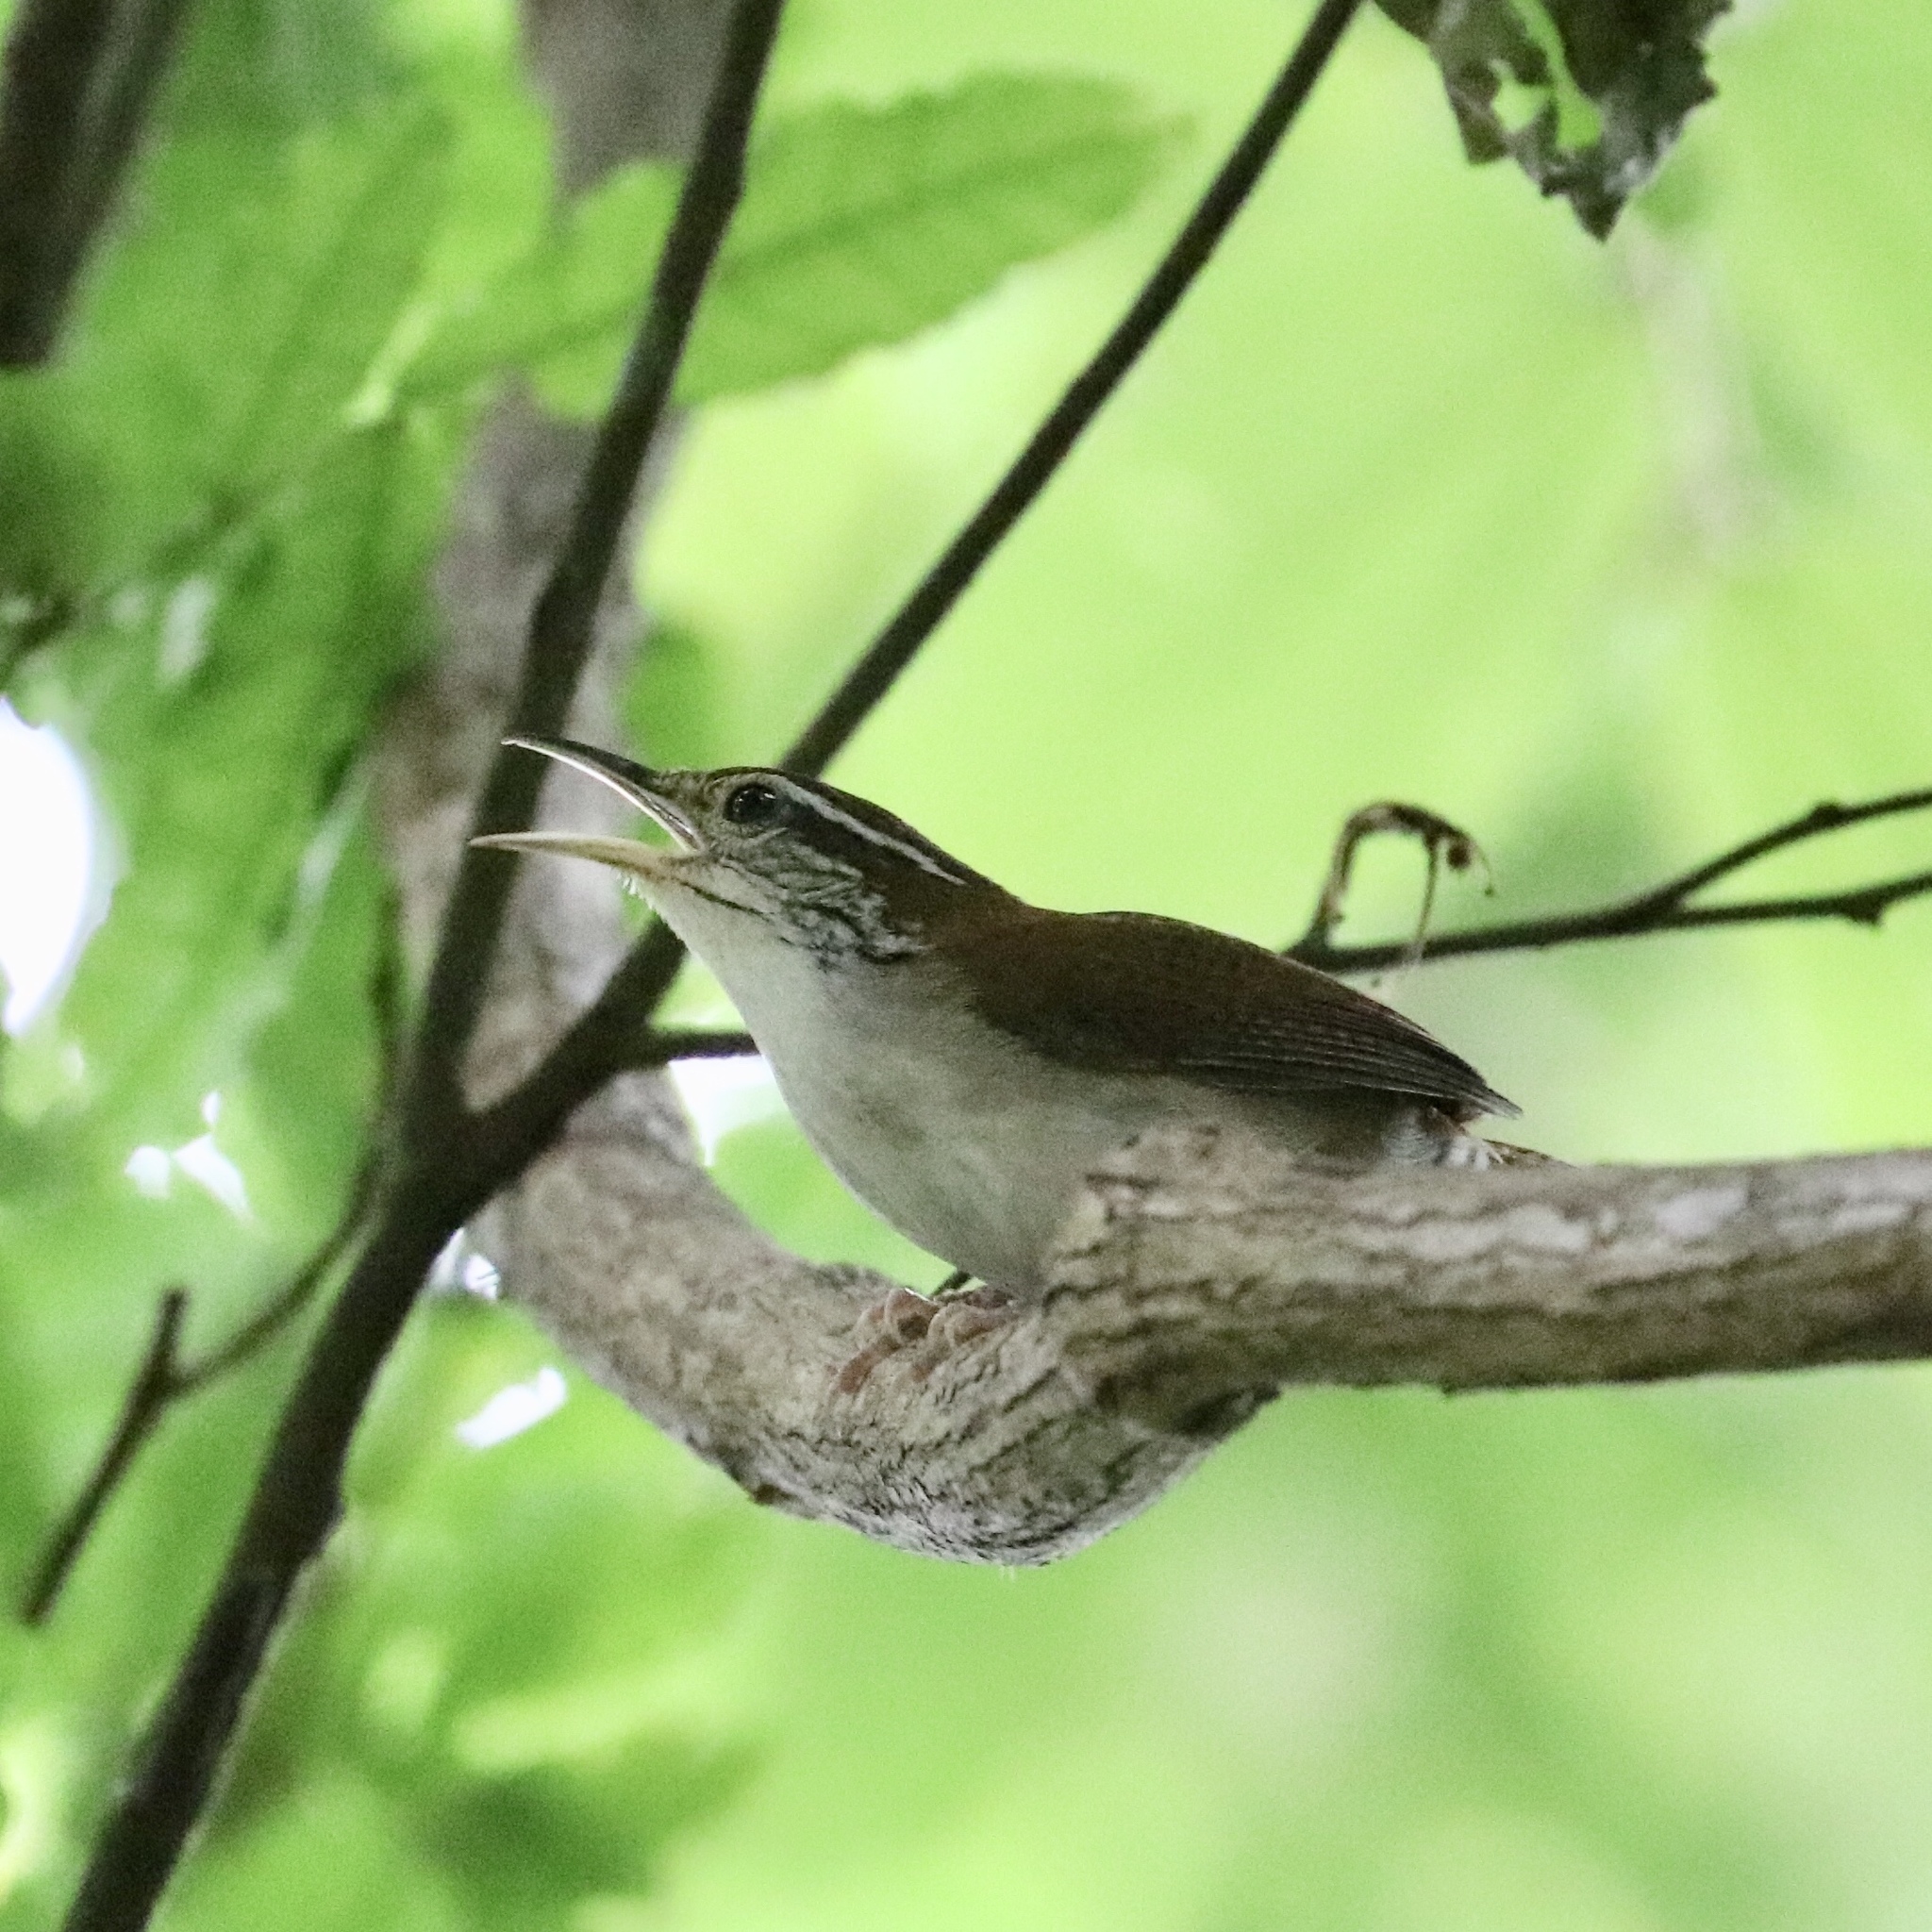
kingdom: Animalia
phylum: Chordata
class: Aves
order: Passeriformes
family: Troglodytidae
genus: Thryophilus
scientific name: Thryophilus rufalbus
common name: Rufous-and-white wren
